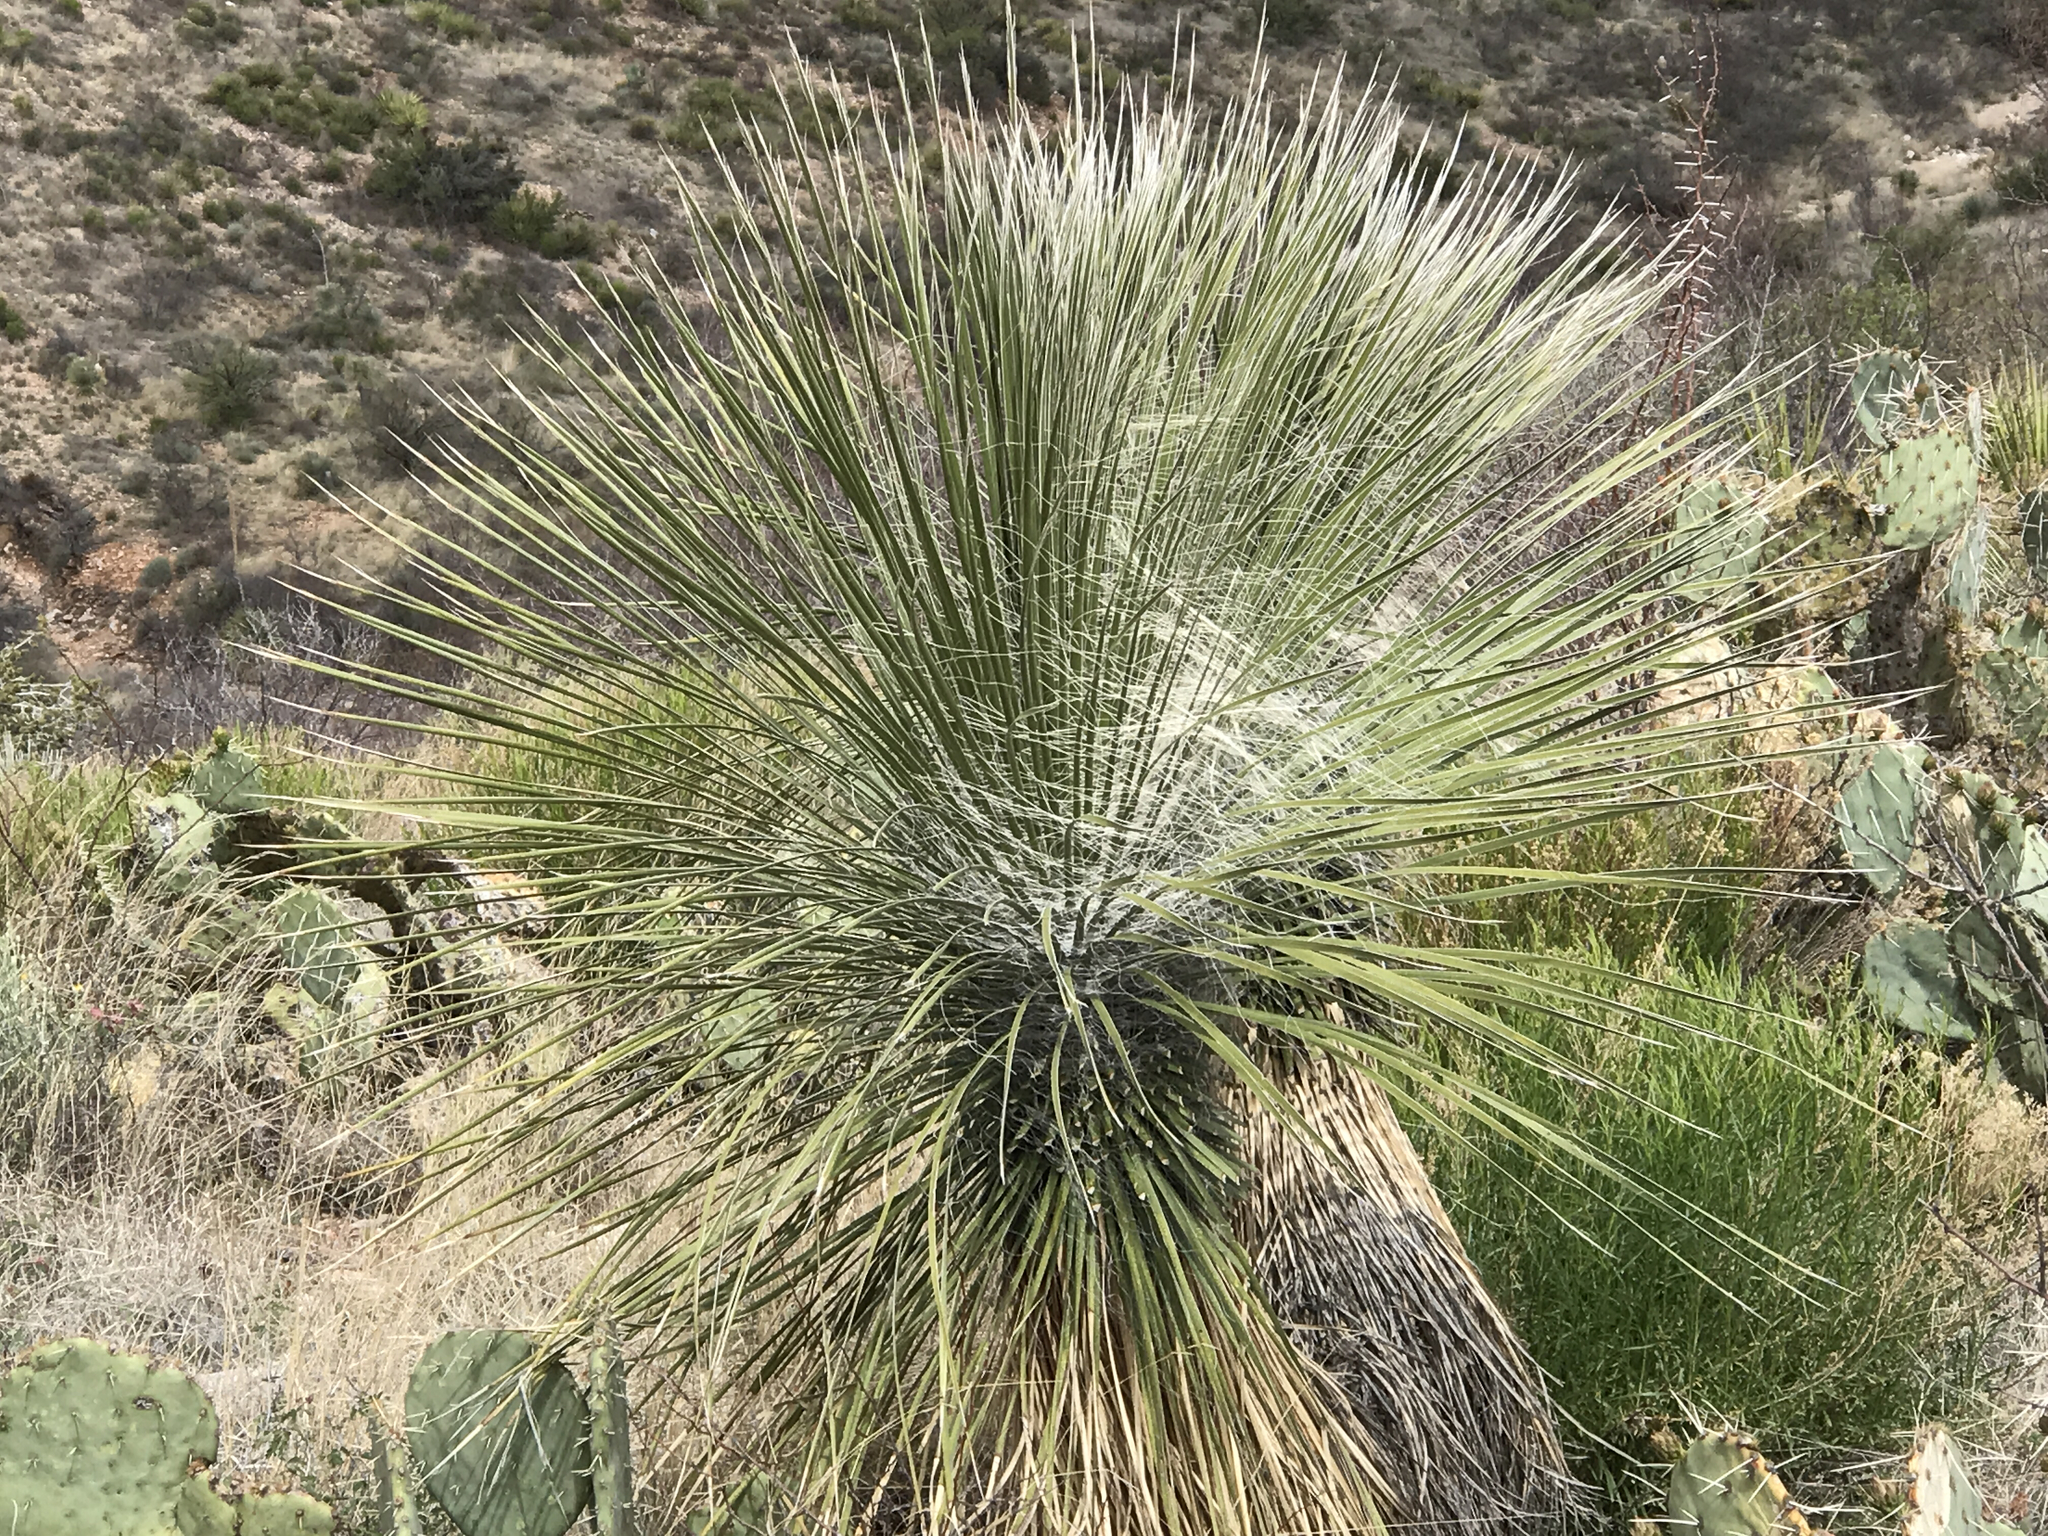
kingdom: Plantae
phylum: Tracheophyta
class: Liliopsida
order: Asparagales
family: Asparagaceae
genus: Yucca
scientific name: Yucca elata
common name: Palmella
